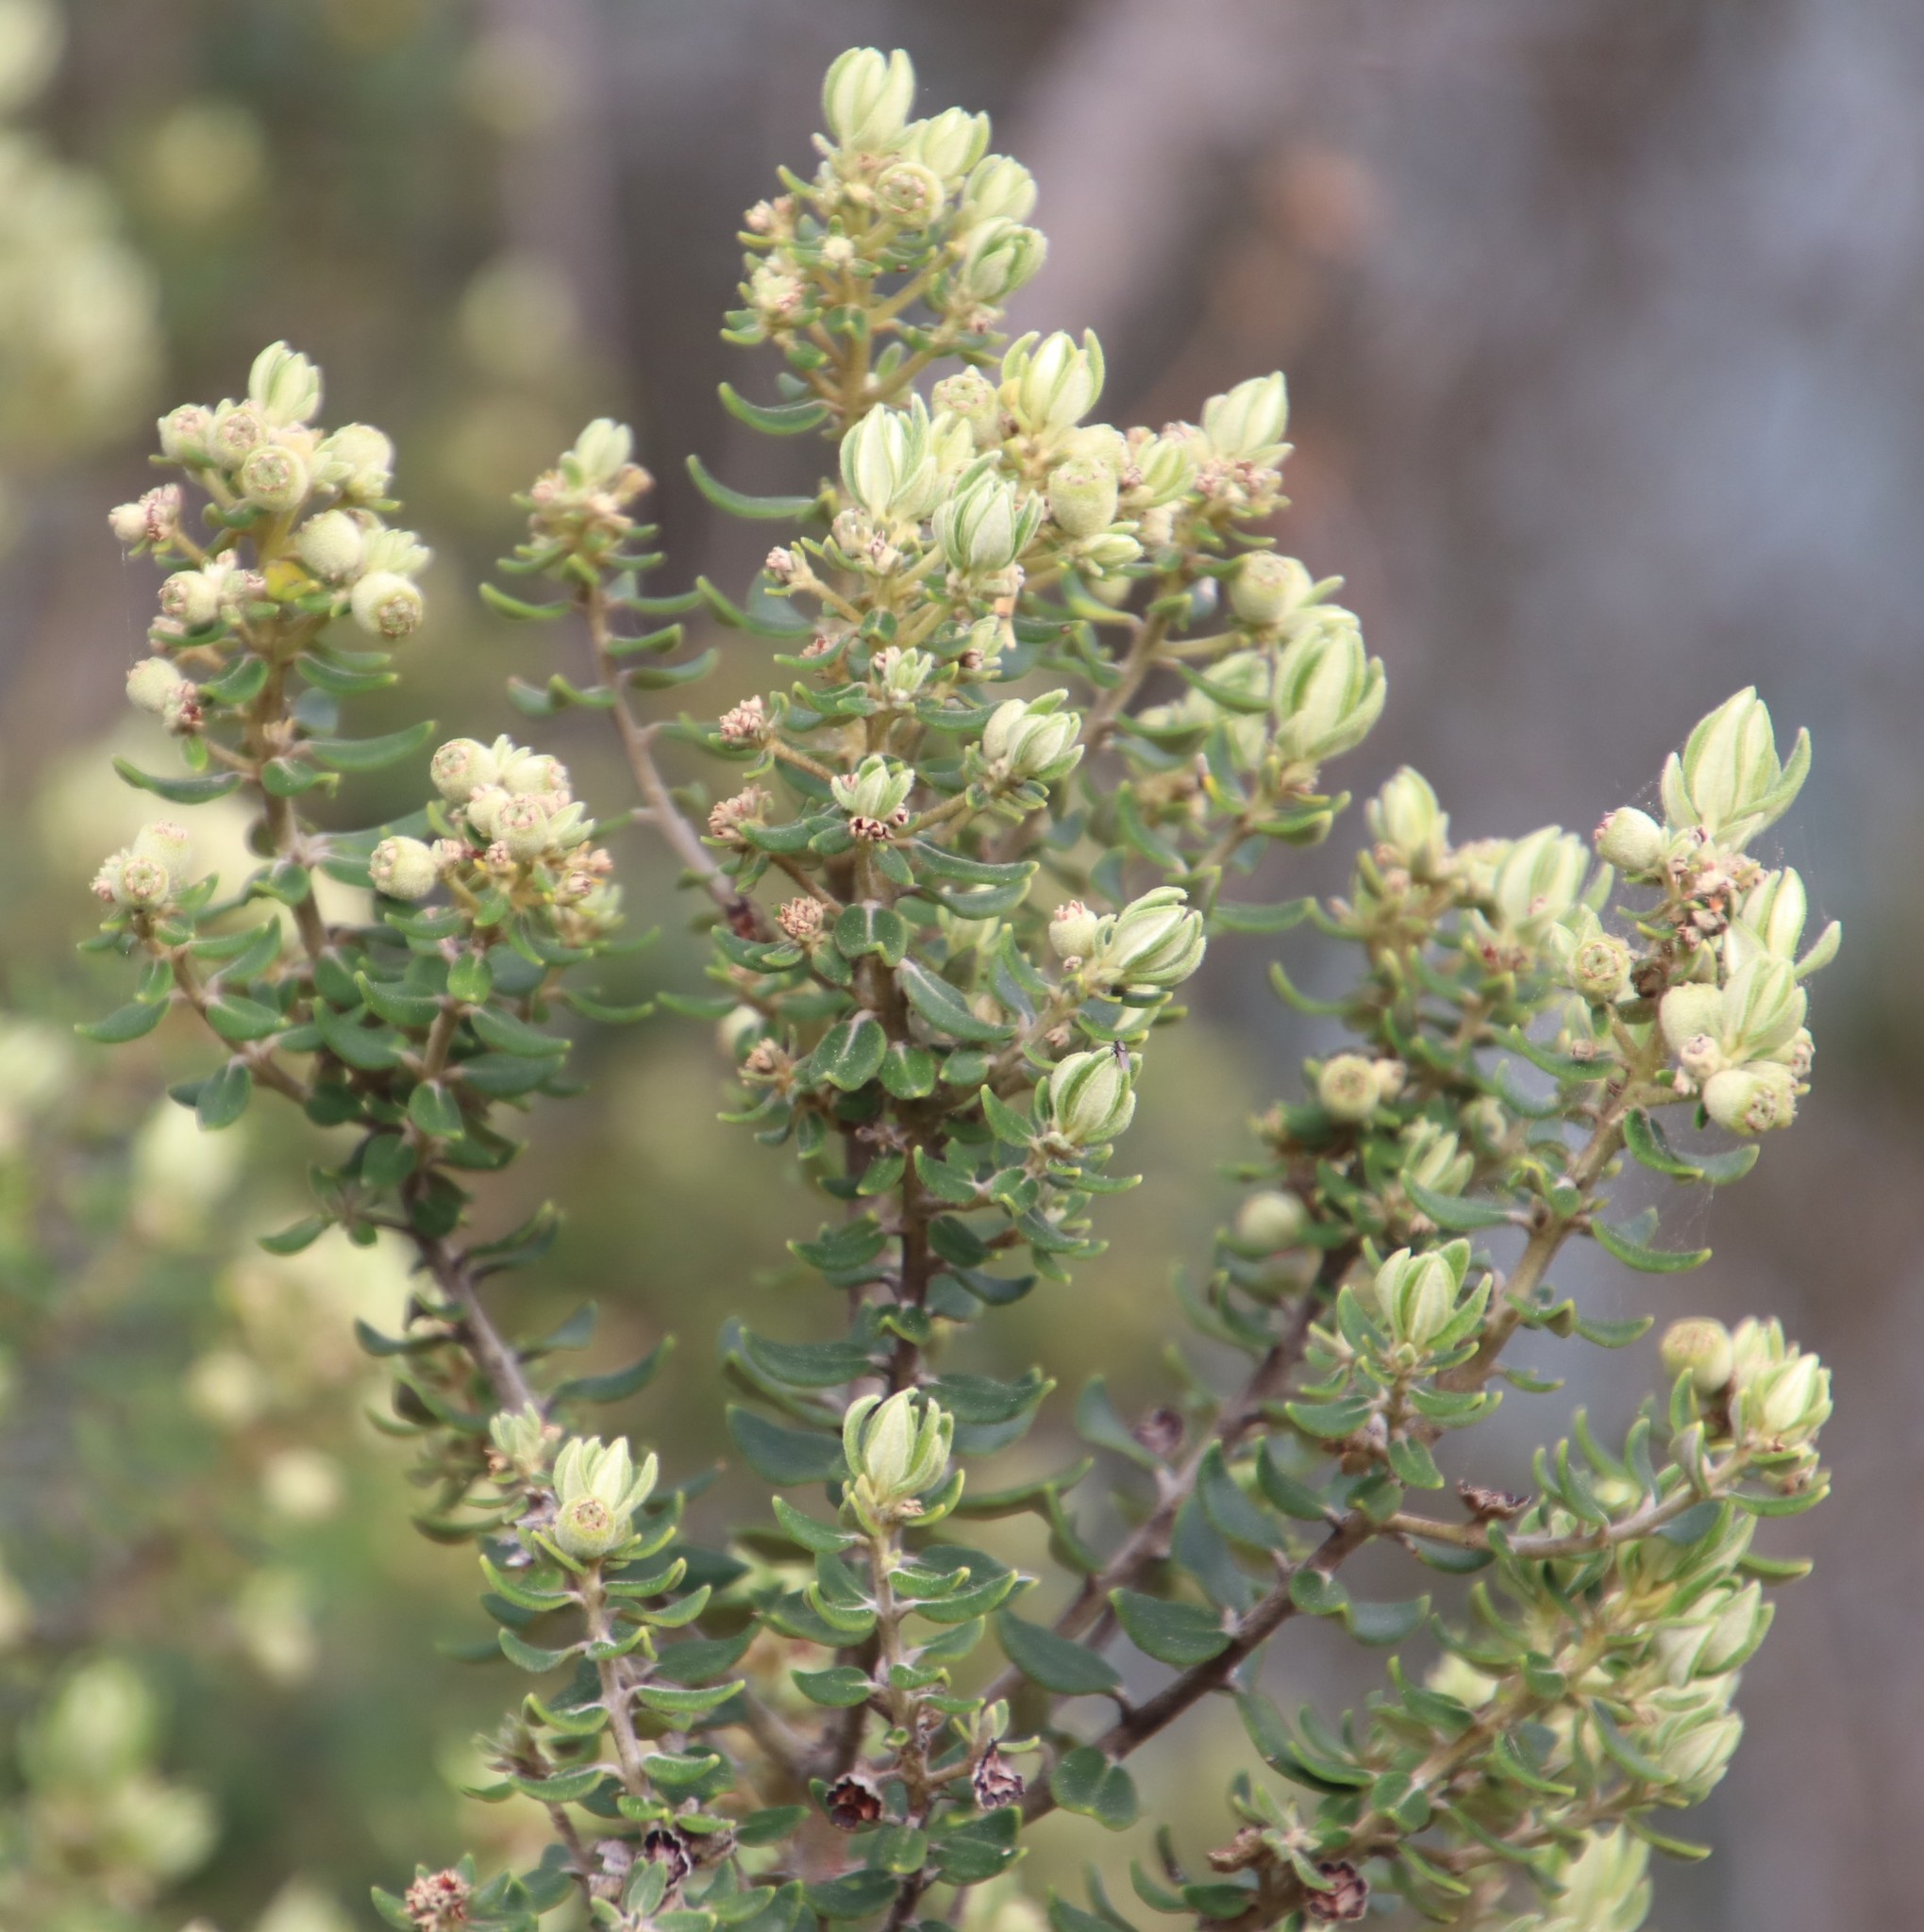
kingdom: Plantae
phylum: Tracheophyta
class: Magnoliopsida
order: Rosales
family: Rhamnaceae
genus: Phylica
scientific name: Phylica buxifolia
